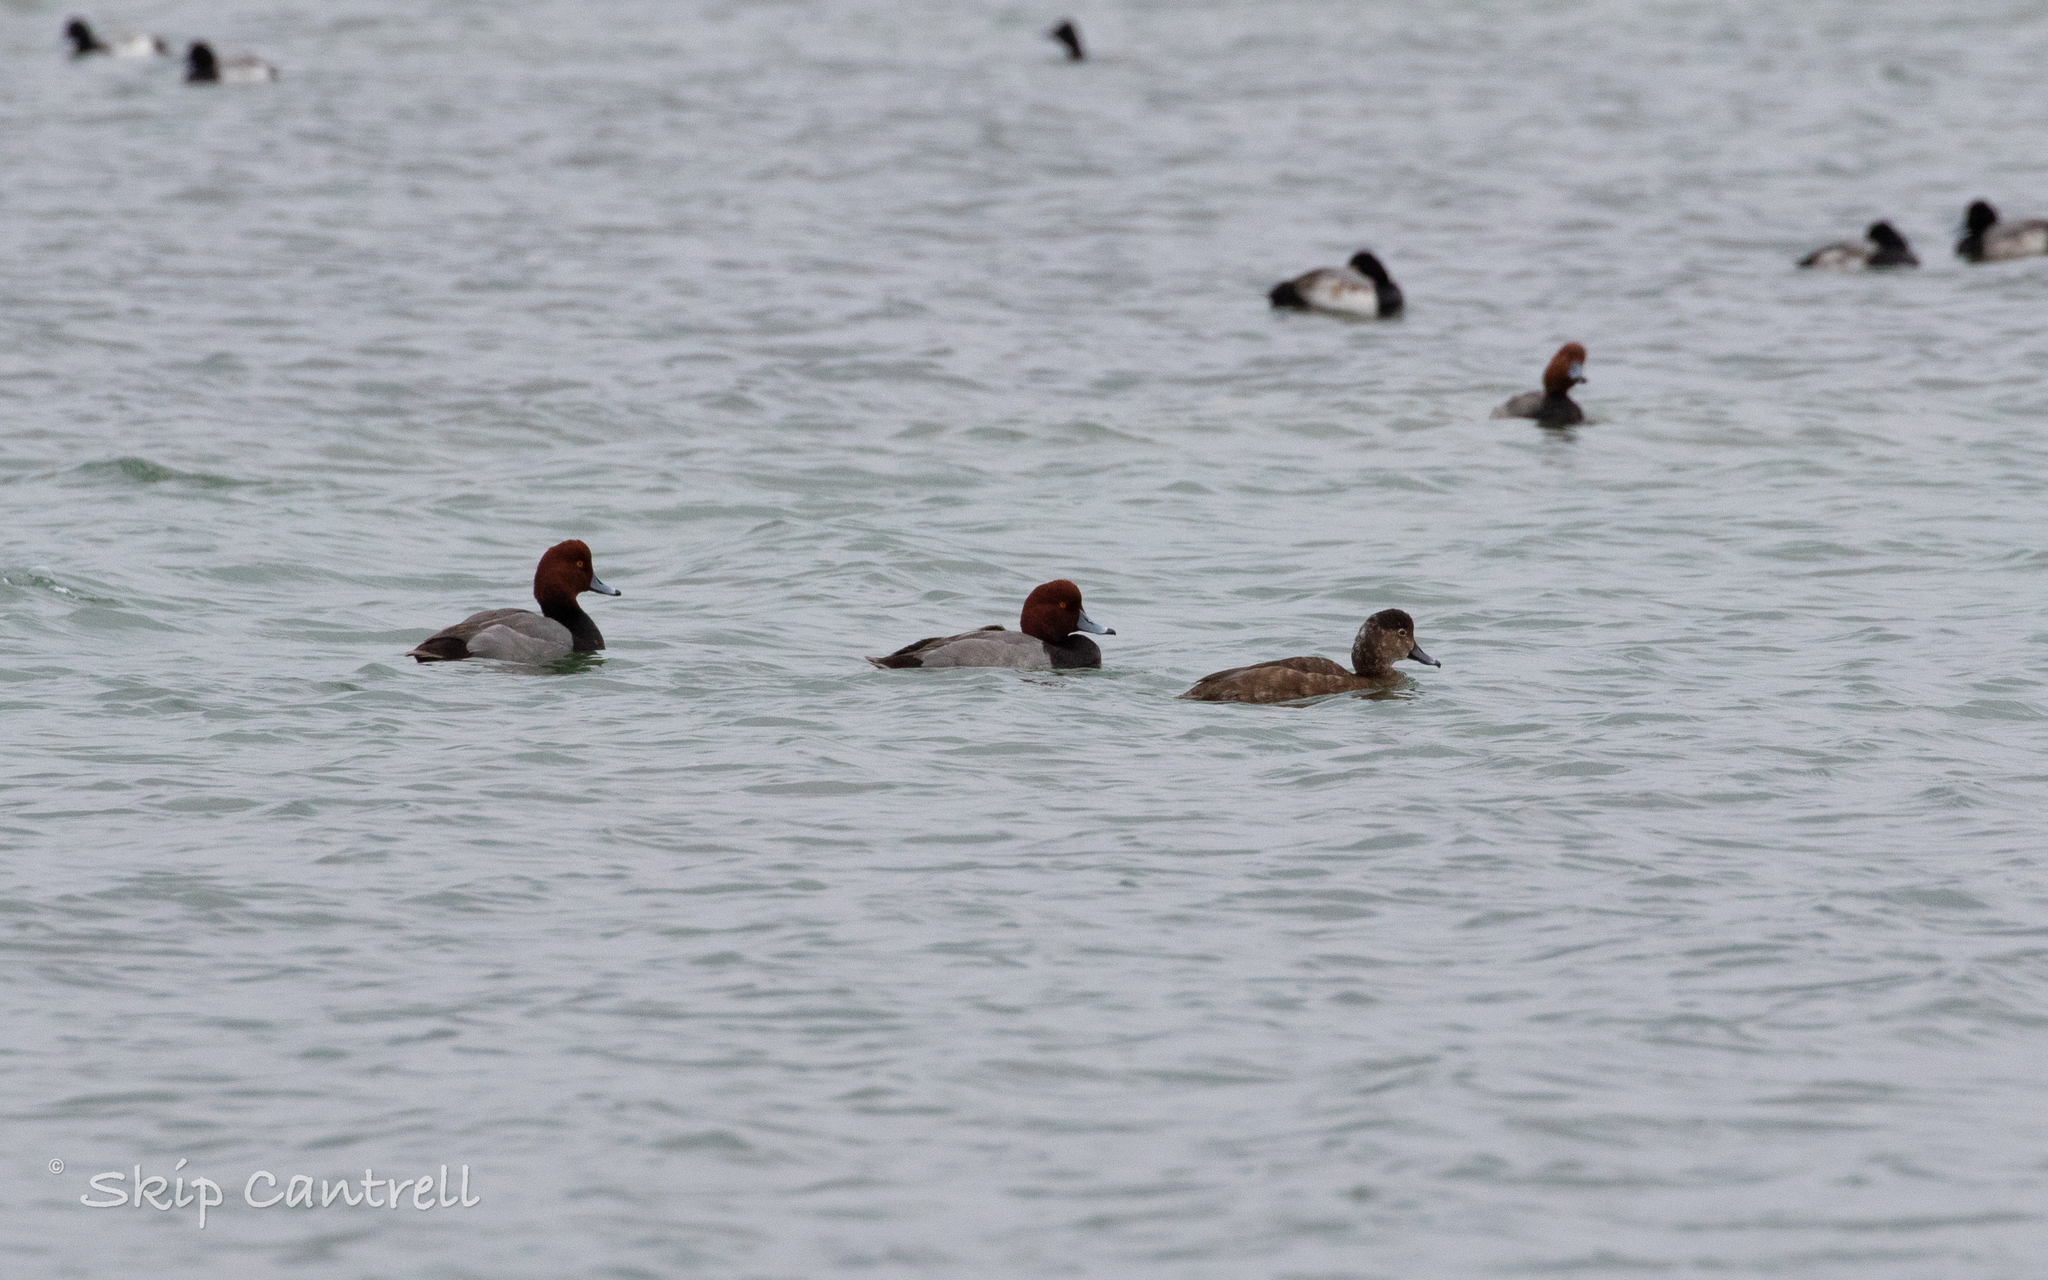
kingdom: Animalia
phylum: Chordata
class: Aves
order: Anseriformes
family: Anatidae
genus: Aythya
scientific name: Aythya americana
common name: Redhead
